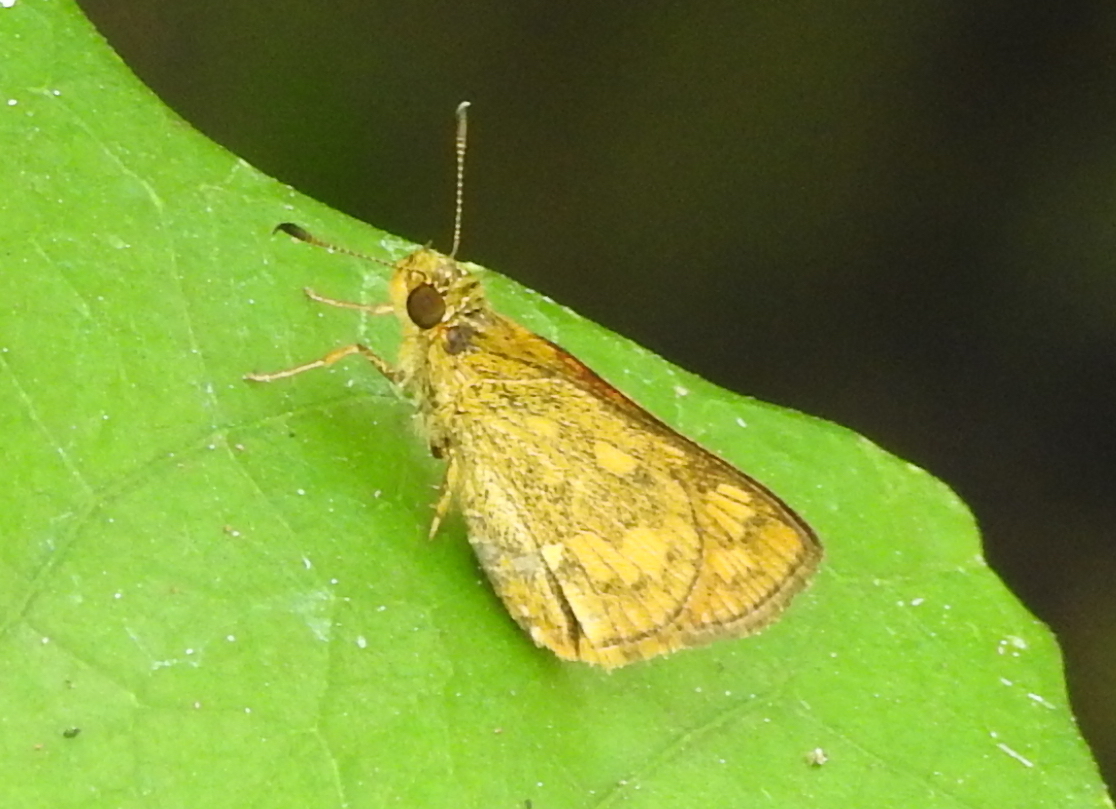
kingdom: Animalia
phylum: Arthropoda
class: Insecta
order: Lepidoptera
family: Hesperiidae
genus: Potanthus
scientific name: Potanthus omaha
